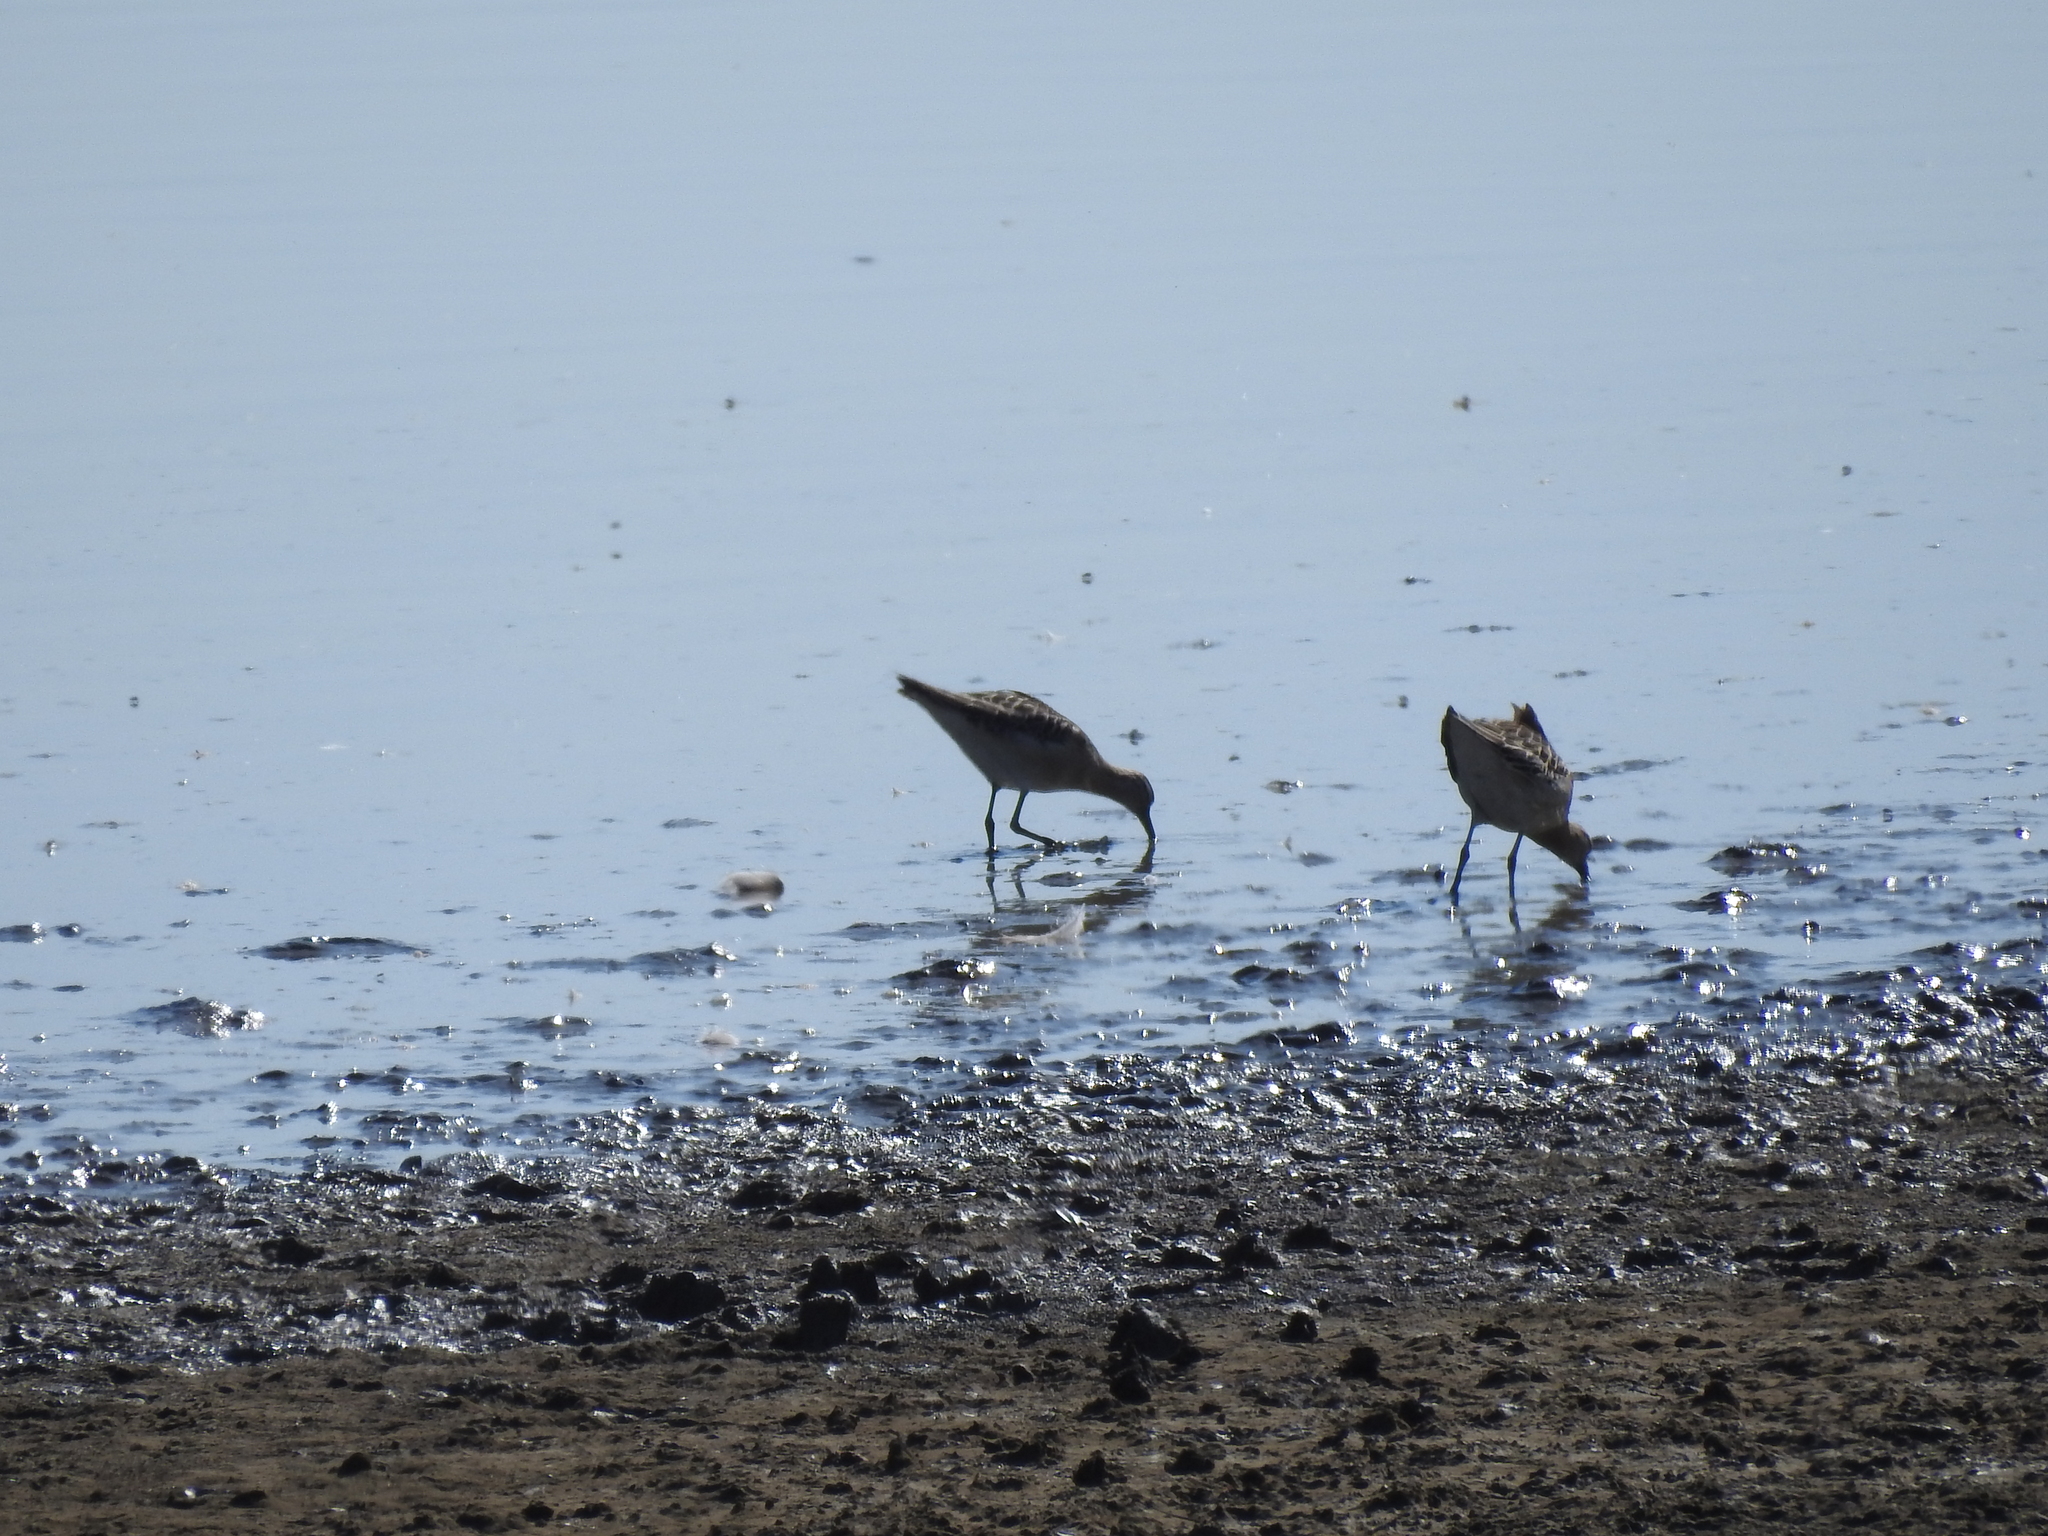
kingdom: Animalia
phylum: Chordata
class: Aves
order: Charadriiformes
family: Scolopacidae
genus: Calidris
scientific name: Calidris pugnax
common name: Ruff
